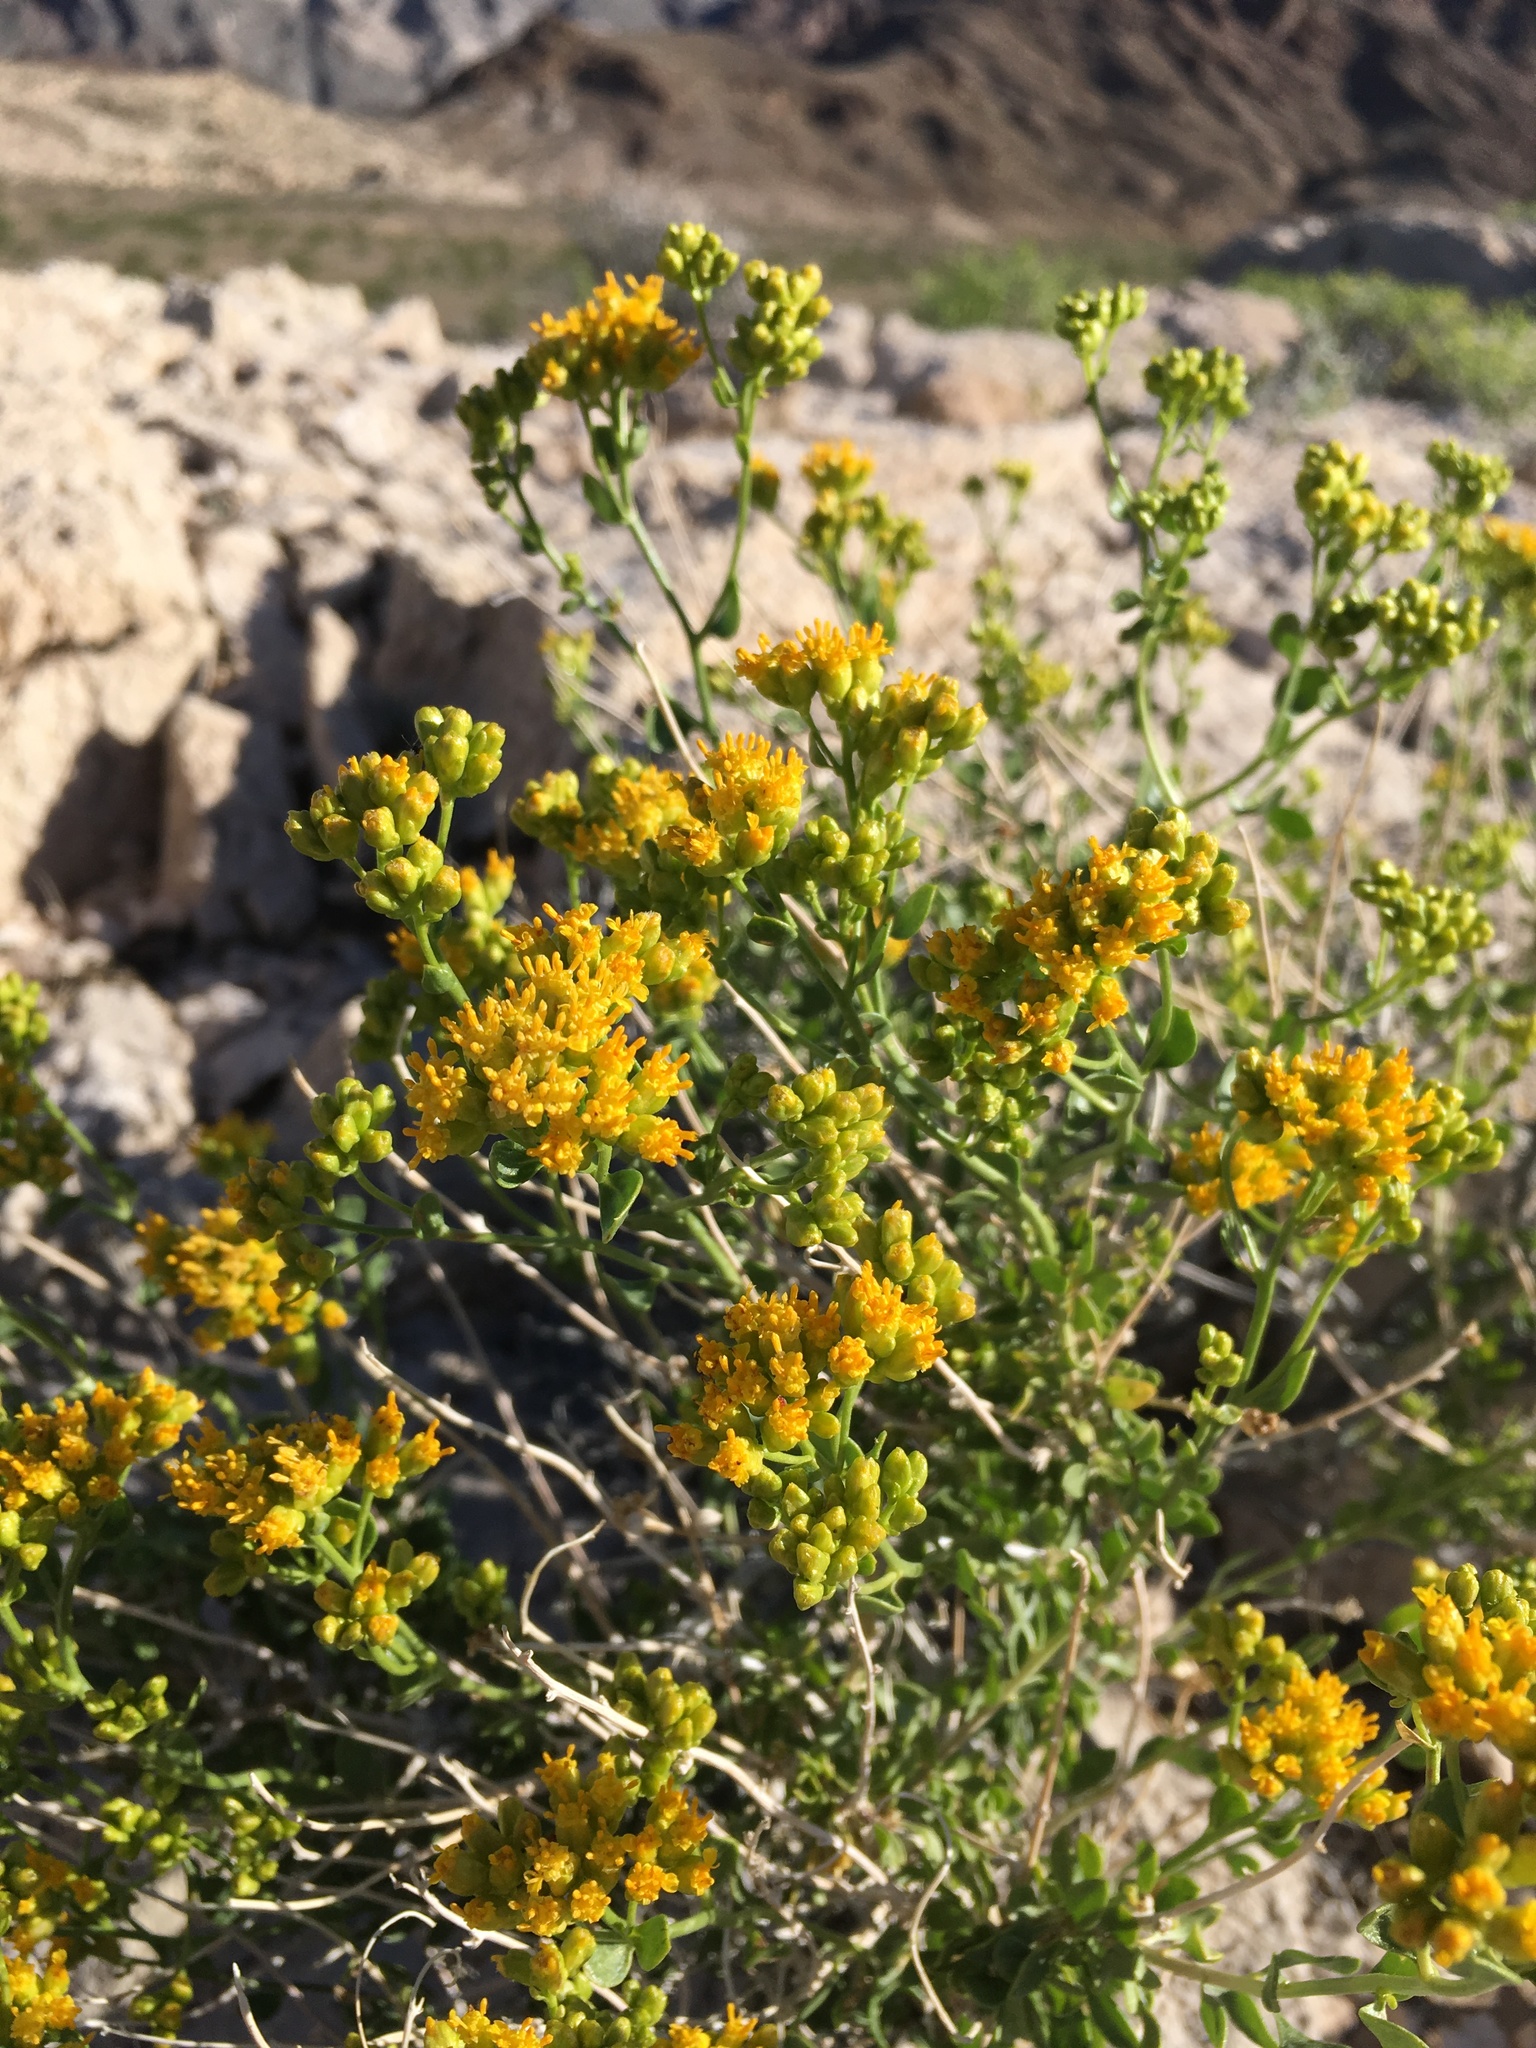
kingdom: Plantae
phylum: Tracheophyta
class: Magnoliopsida
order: Asterales
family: Asteraceae
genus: Amphipappus
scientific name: Amphipappus fremontii
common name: Fremont's chaffbush
